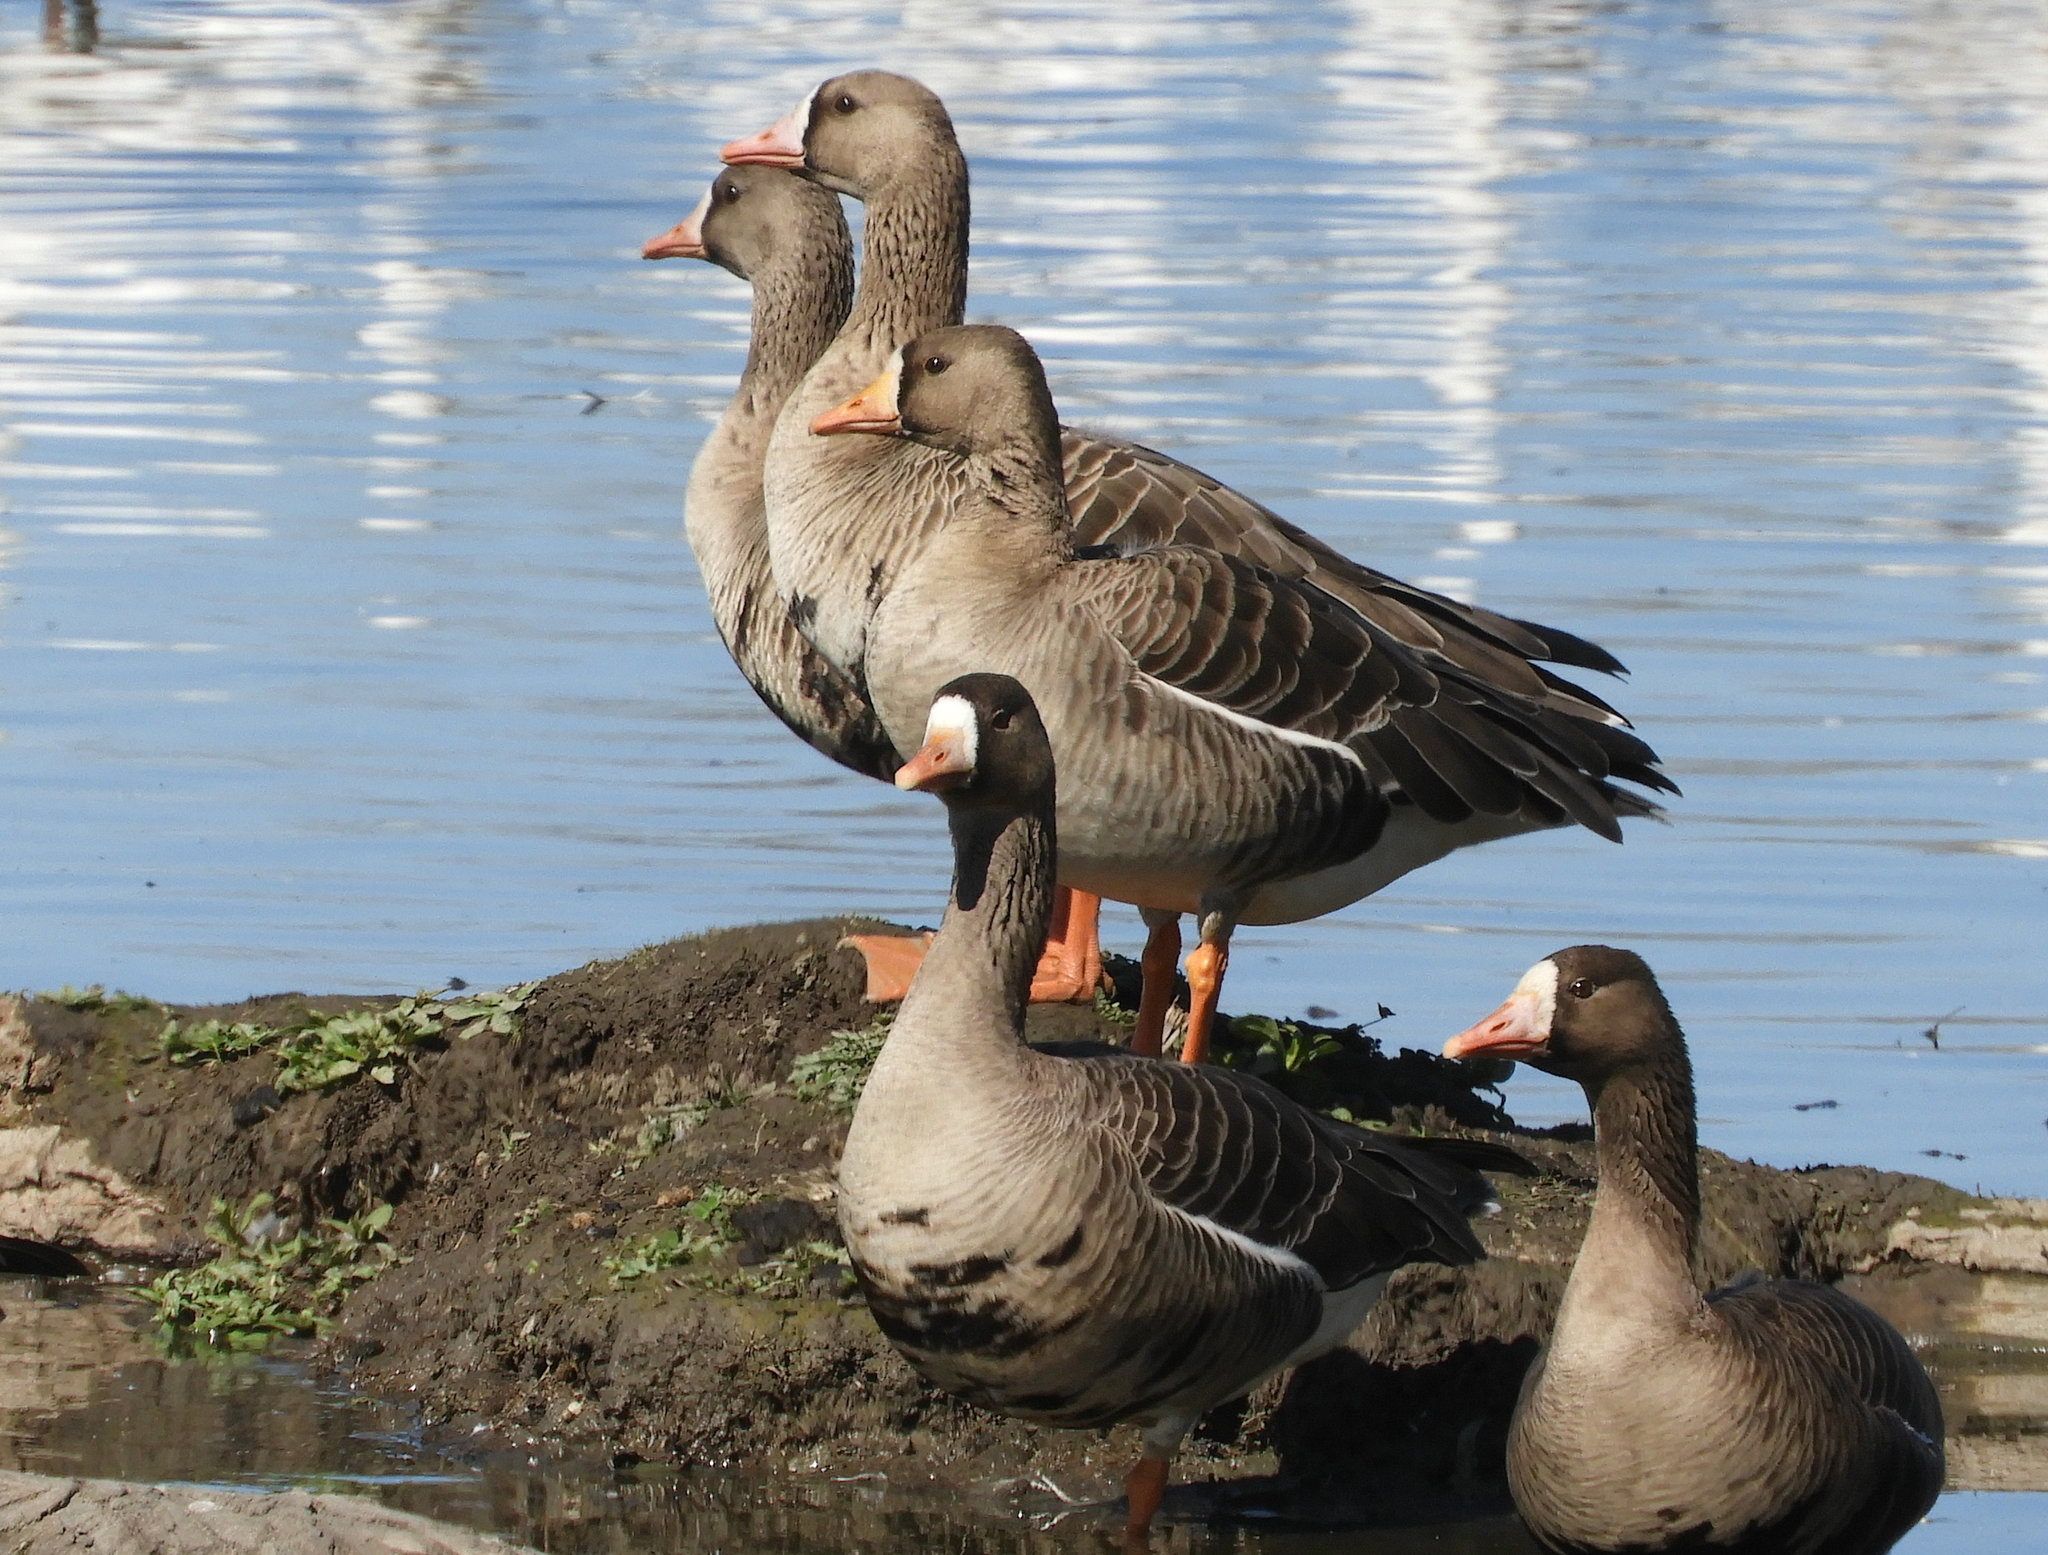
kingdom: Animalia
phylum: Chordata
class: Aves
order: Anseriformes
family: Anatidae
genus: Anser
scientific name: Anser albifrons
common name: Greater white-fronted goose
